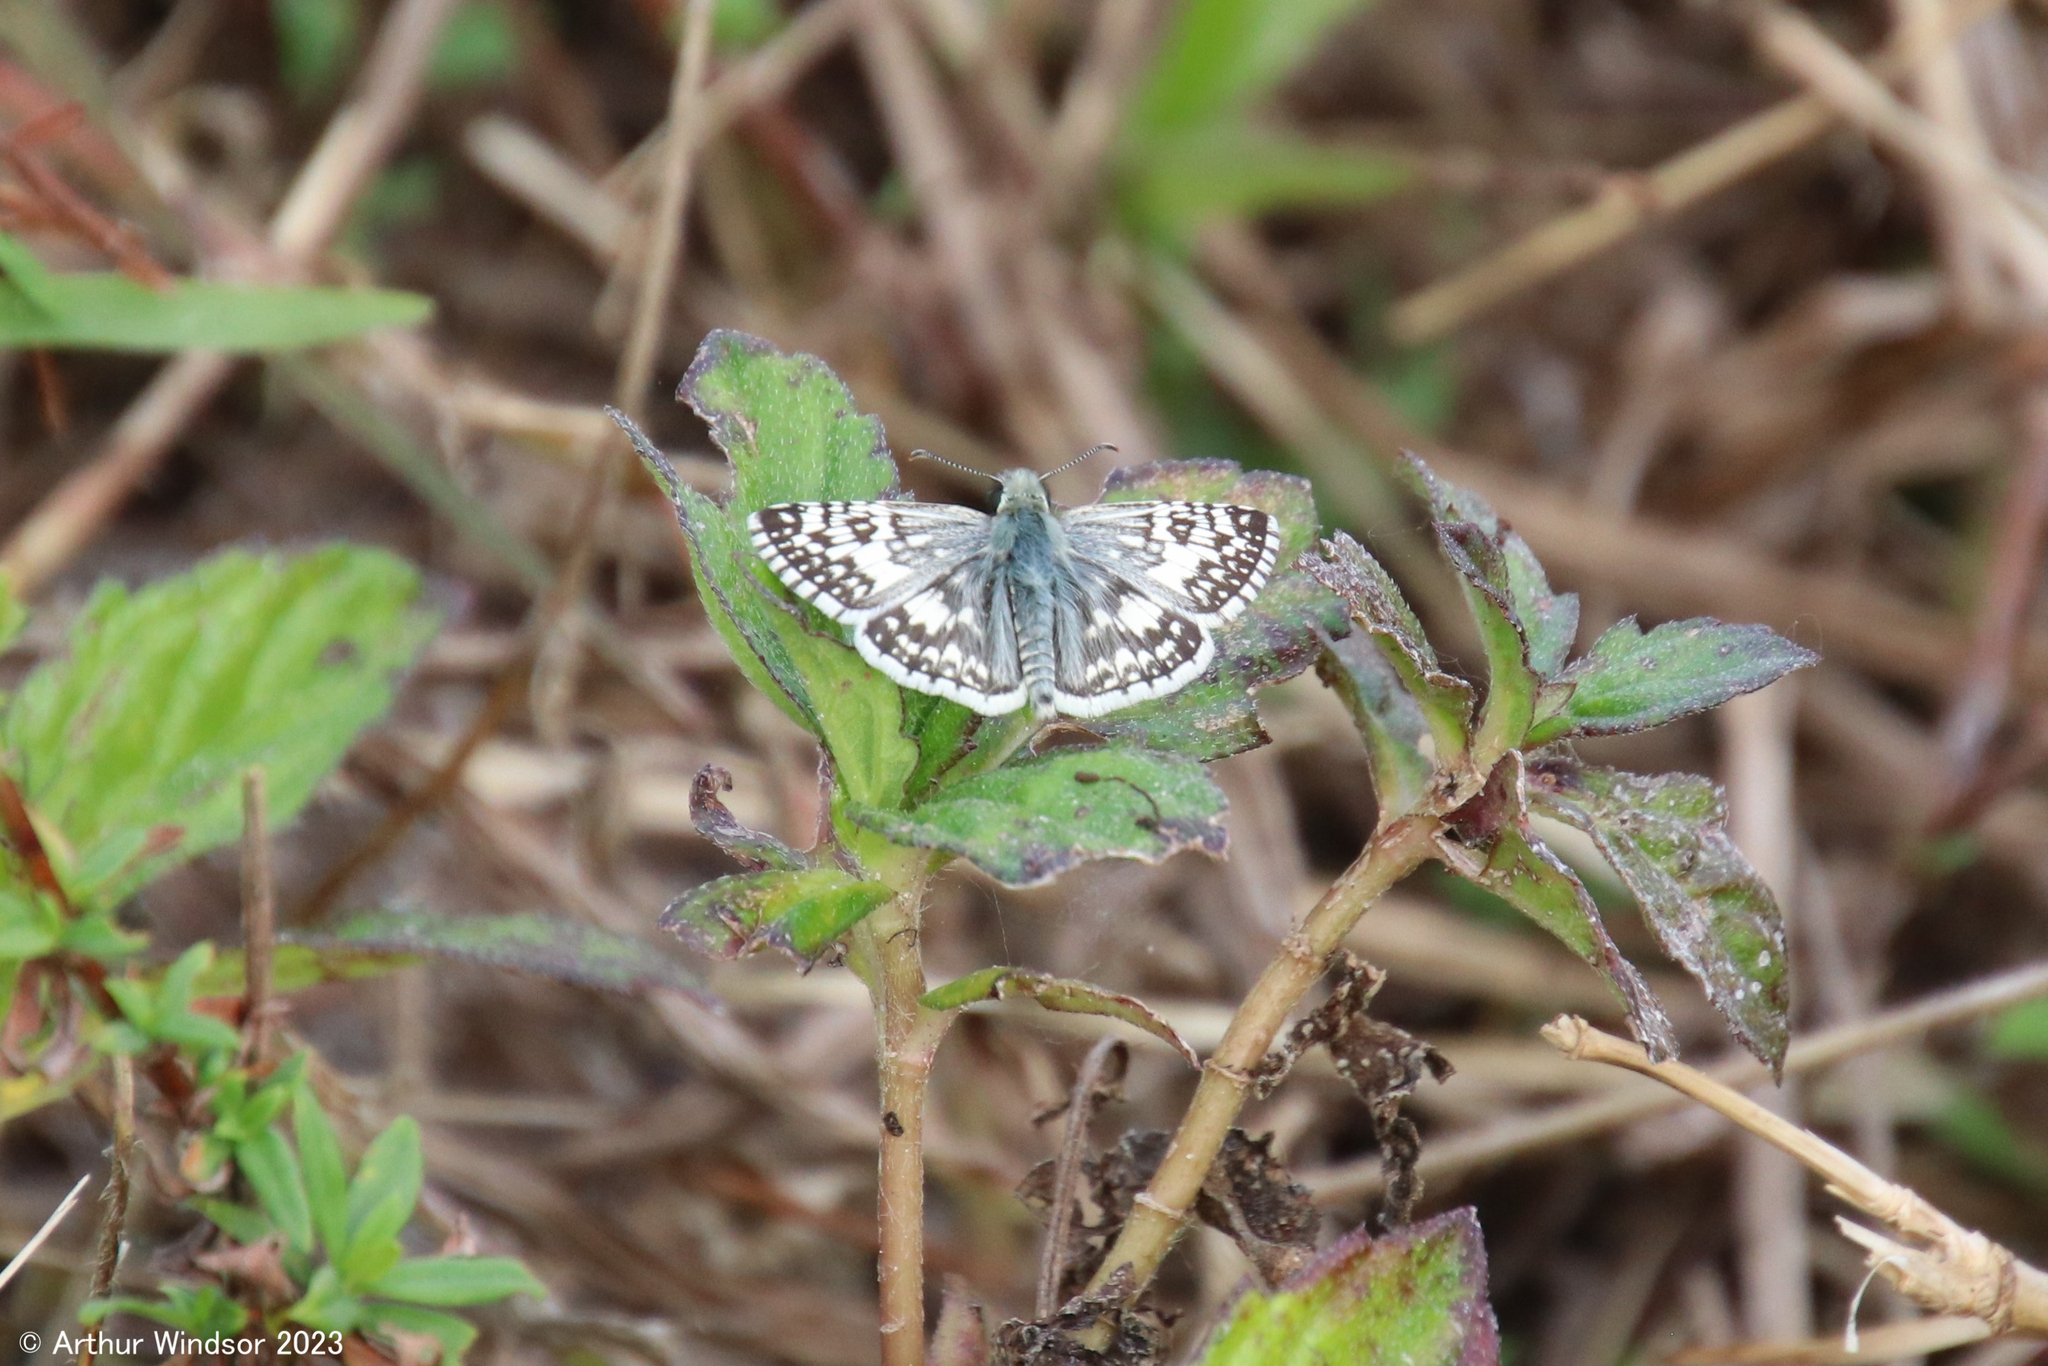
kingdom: Animalia
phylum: Arthropoda
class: Insecta
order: Lepidoptera
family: Hesperiidae
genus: Burnsius
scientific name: Burnsius albezens
